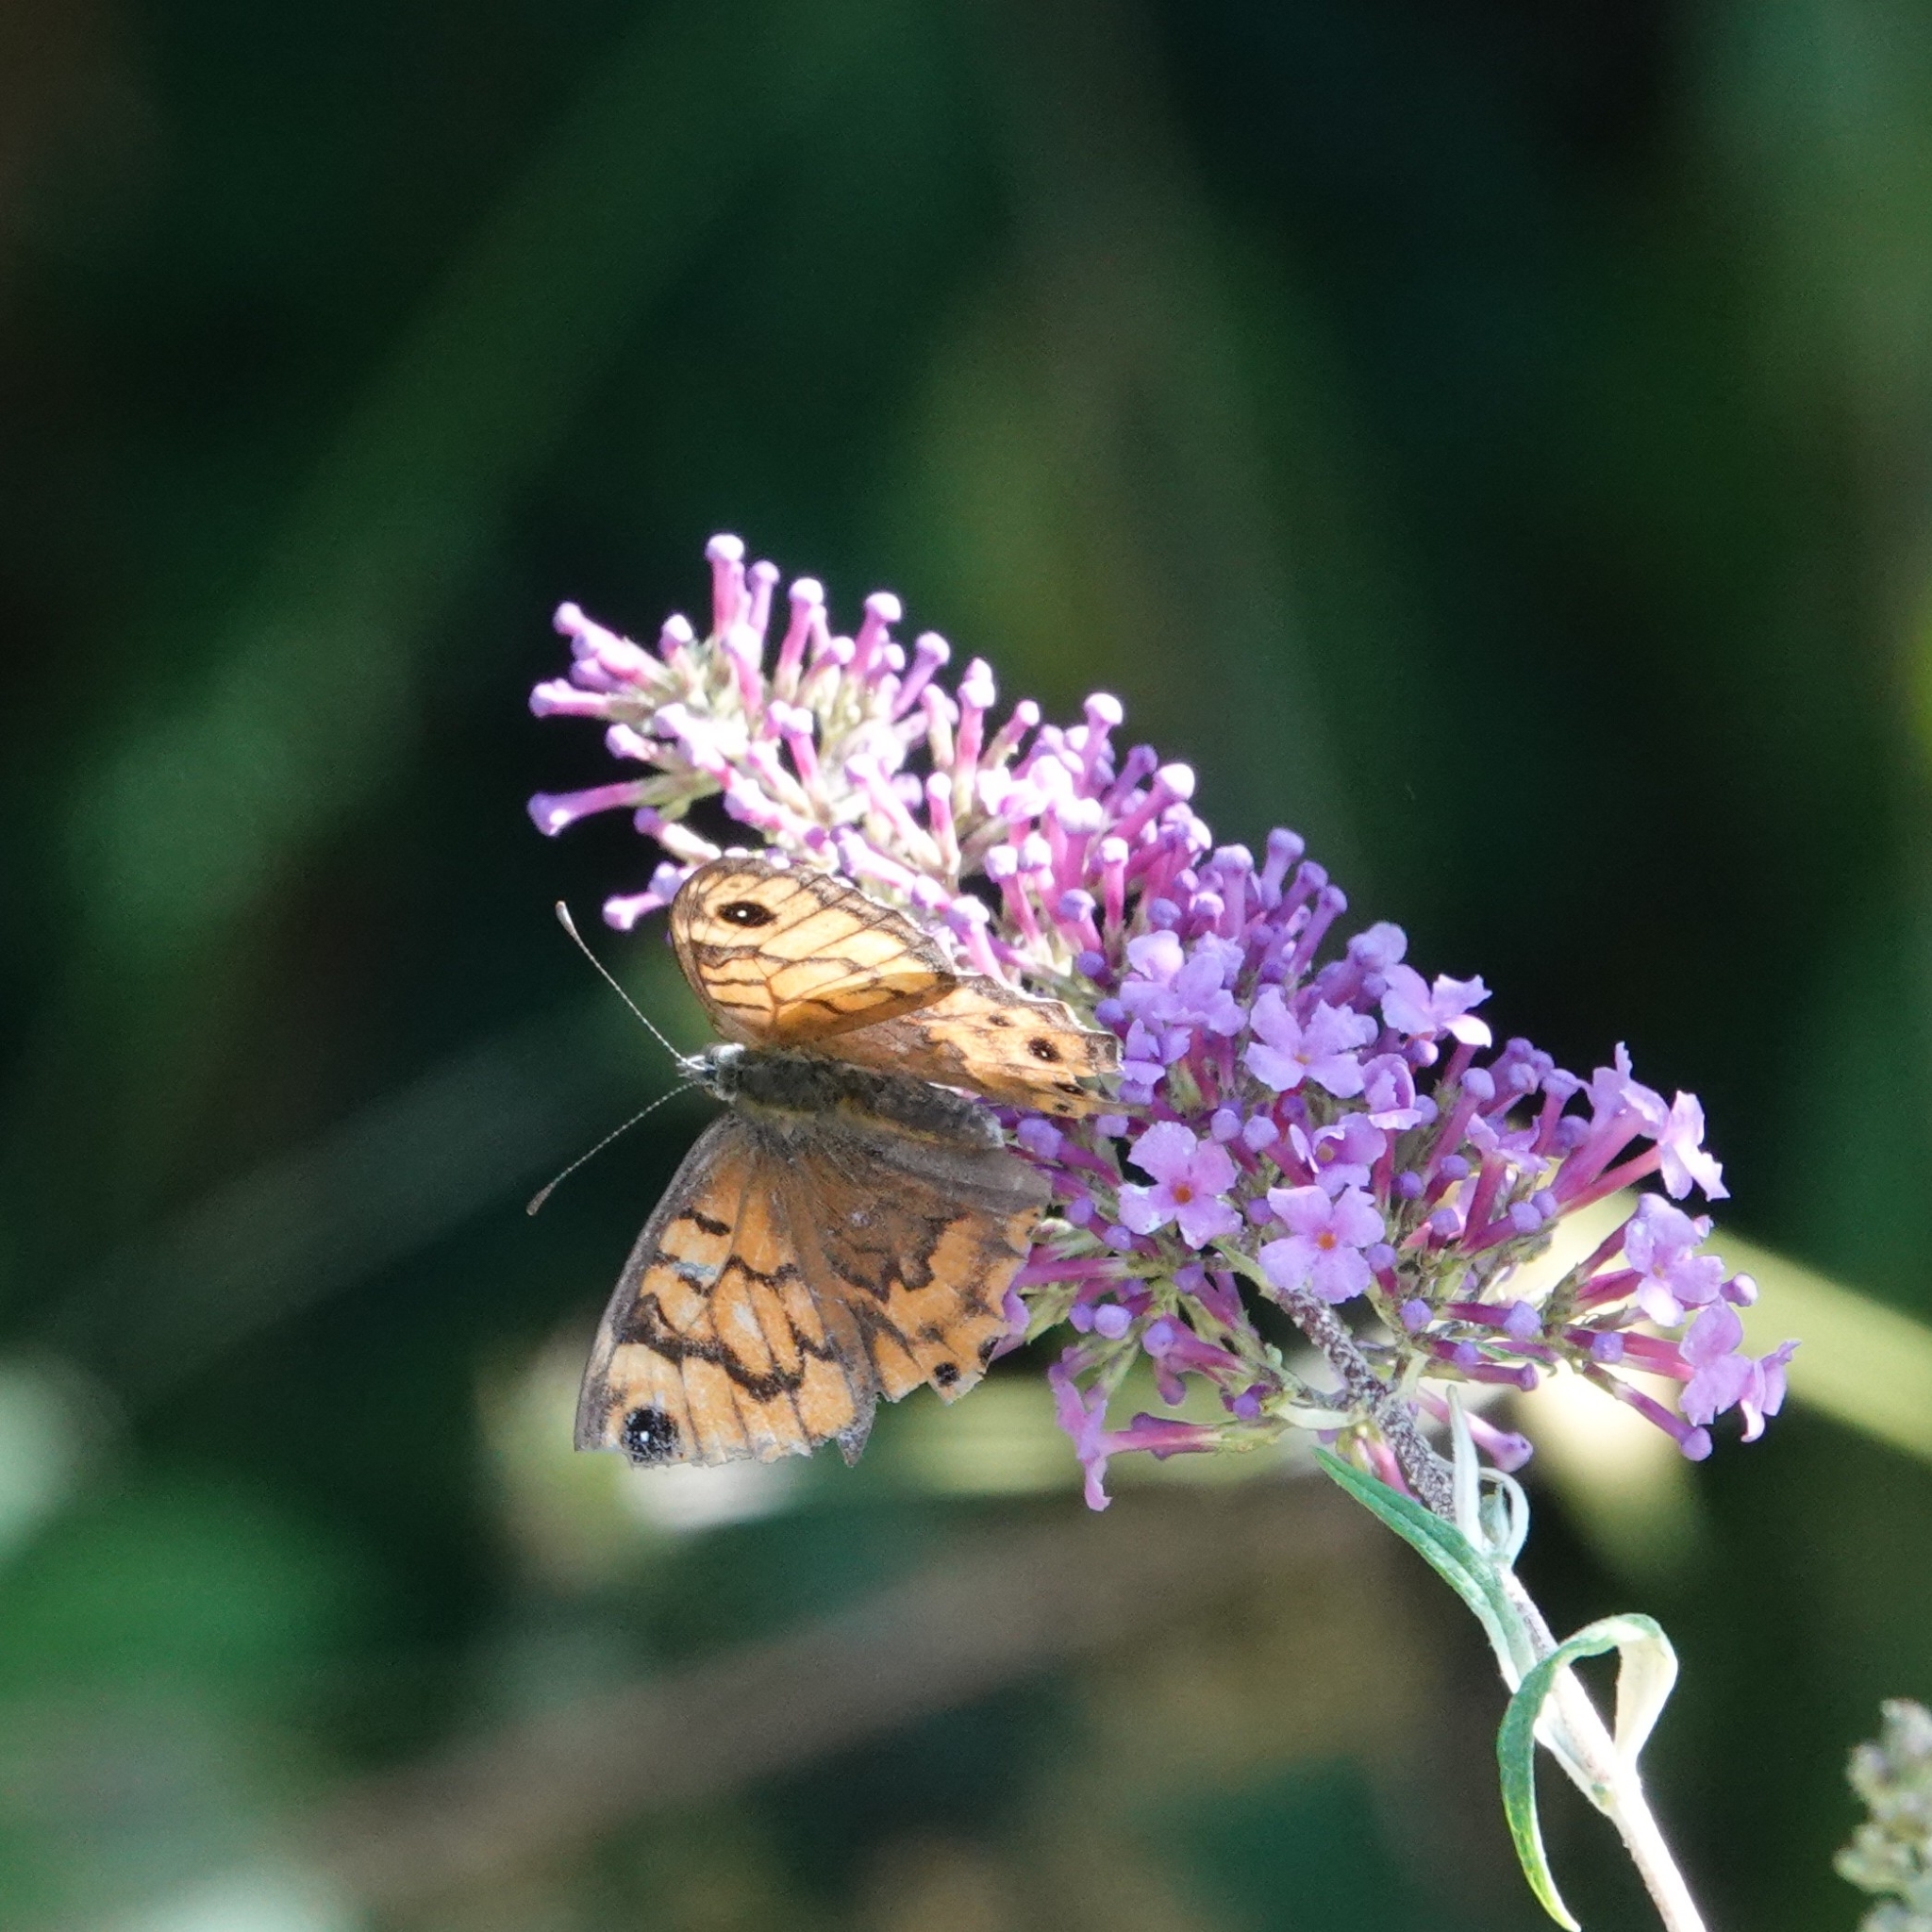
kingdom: Animalia
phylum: Arthropoda
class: Insecta
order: Lepidoptera
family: Nymphalidae
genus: Pararge
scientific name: Pararge Lasiommata megera
